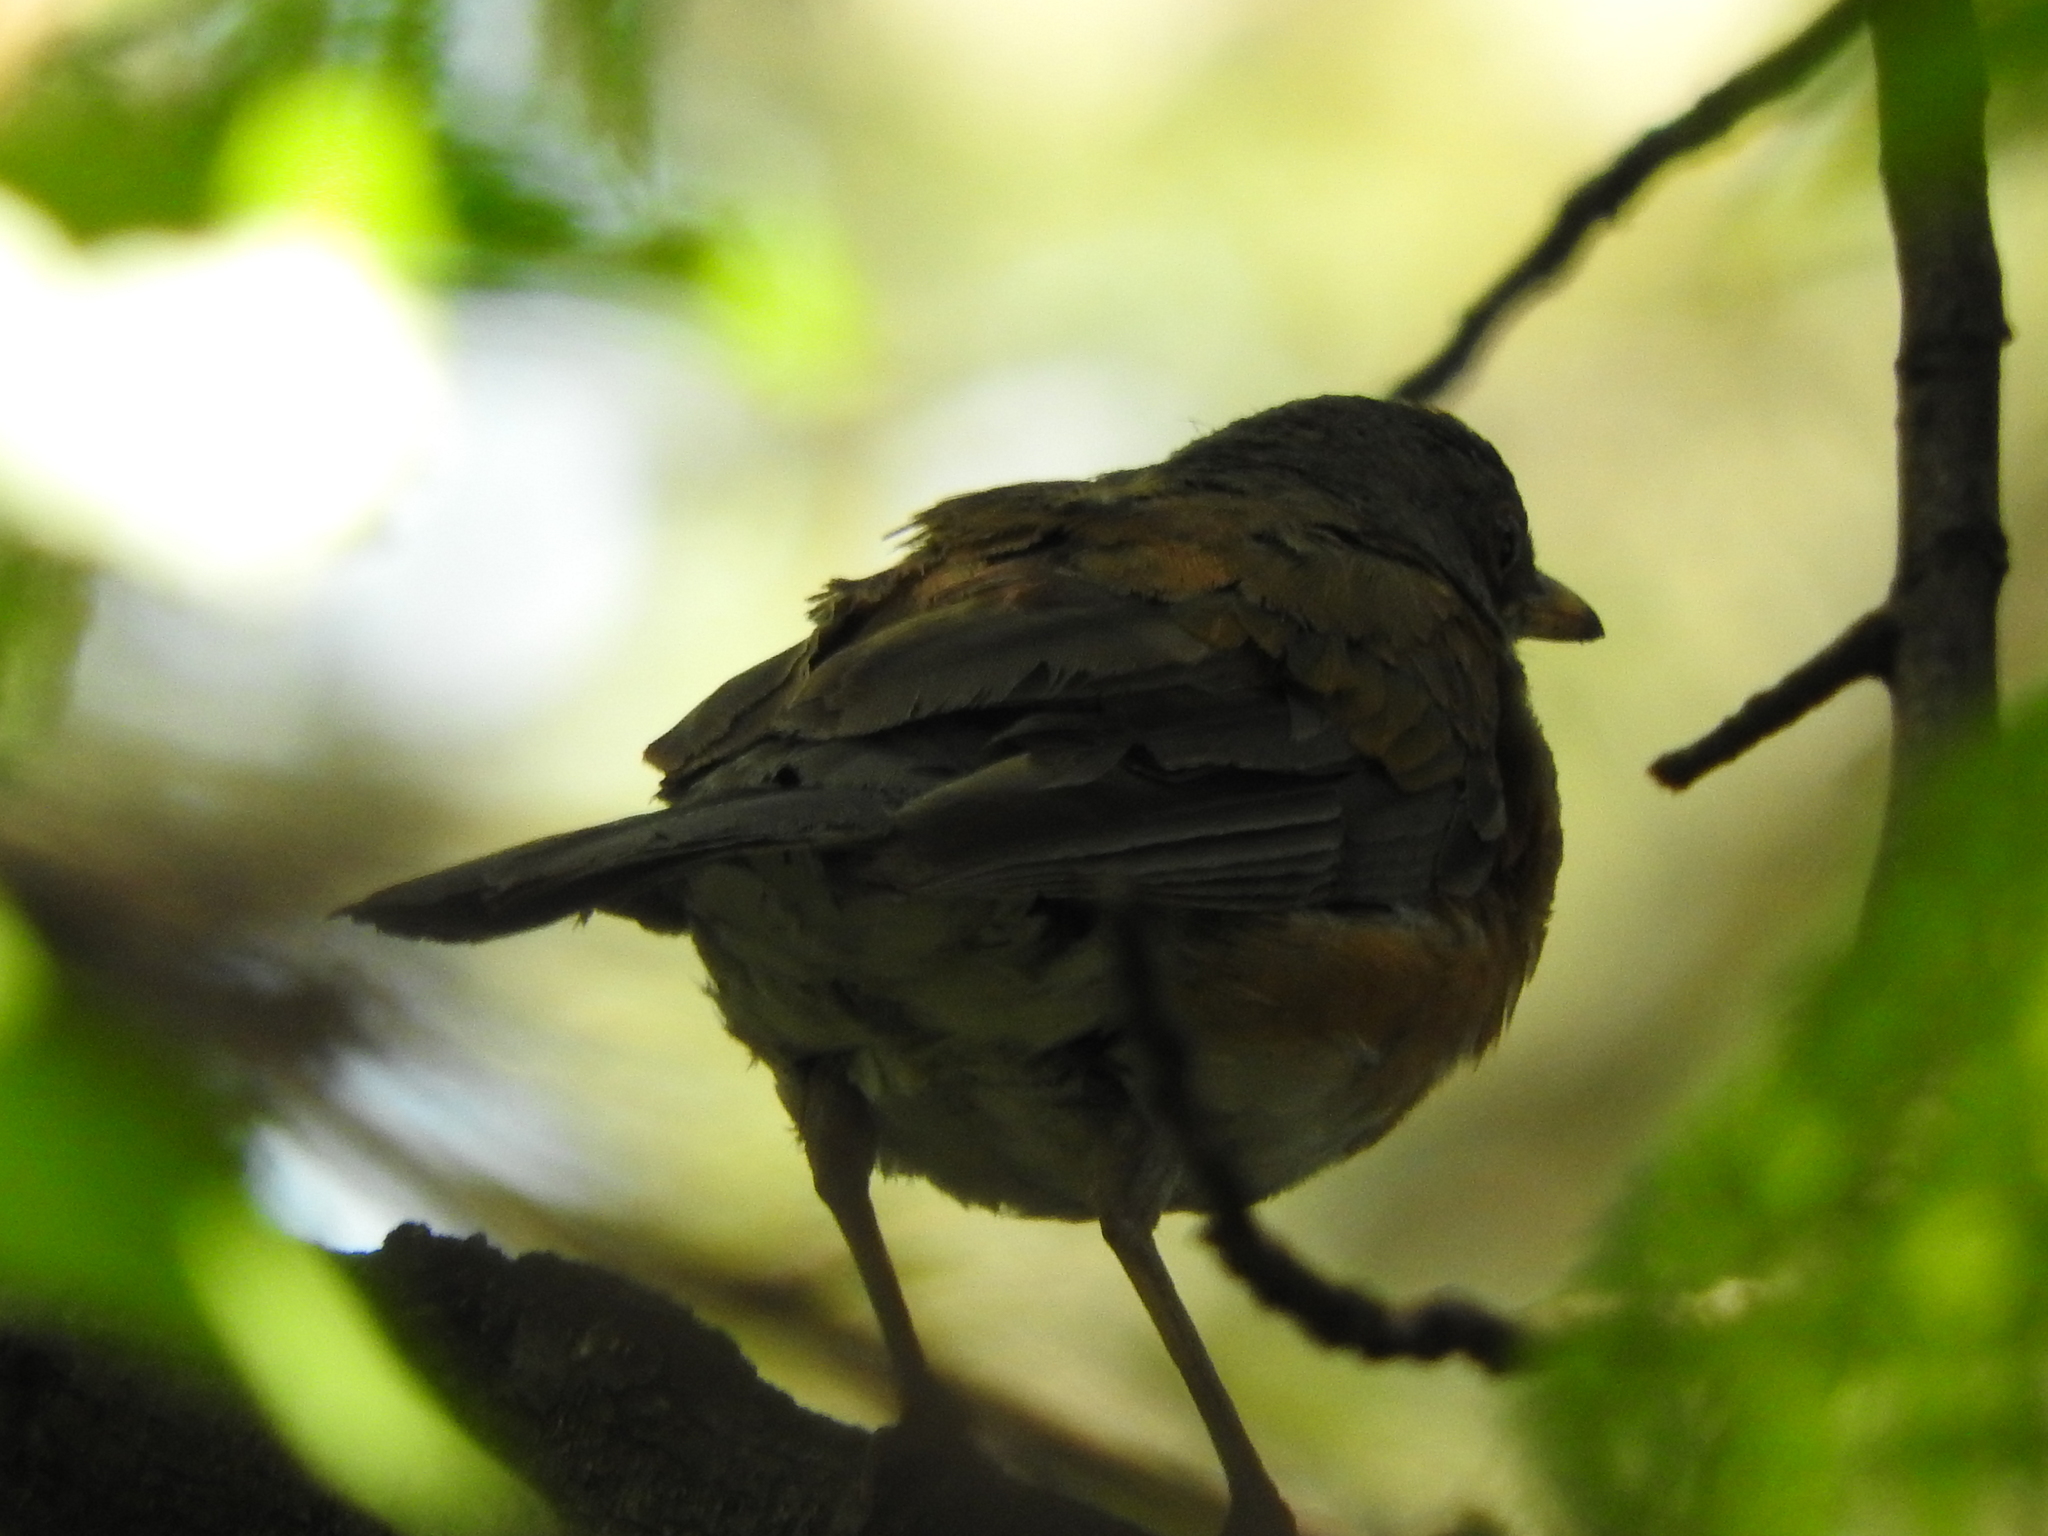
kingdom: Animalia
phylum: Chordata
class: Aves
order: Passeriformes
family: Turdidae
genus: Turdus
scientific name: Turdus rufopalliatus
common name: Rufous-backed robin
